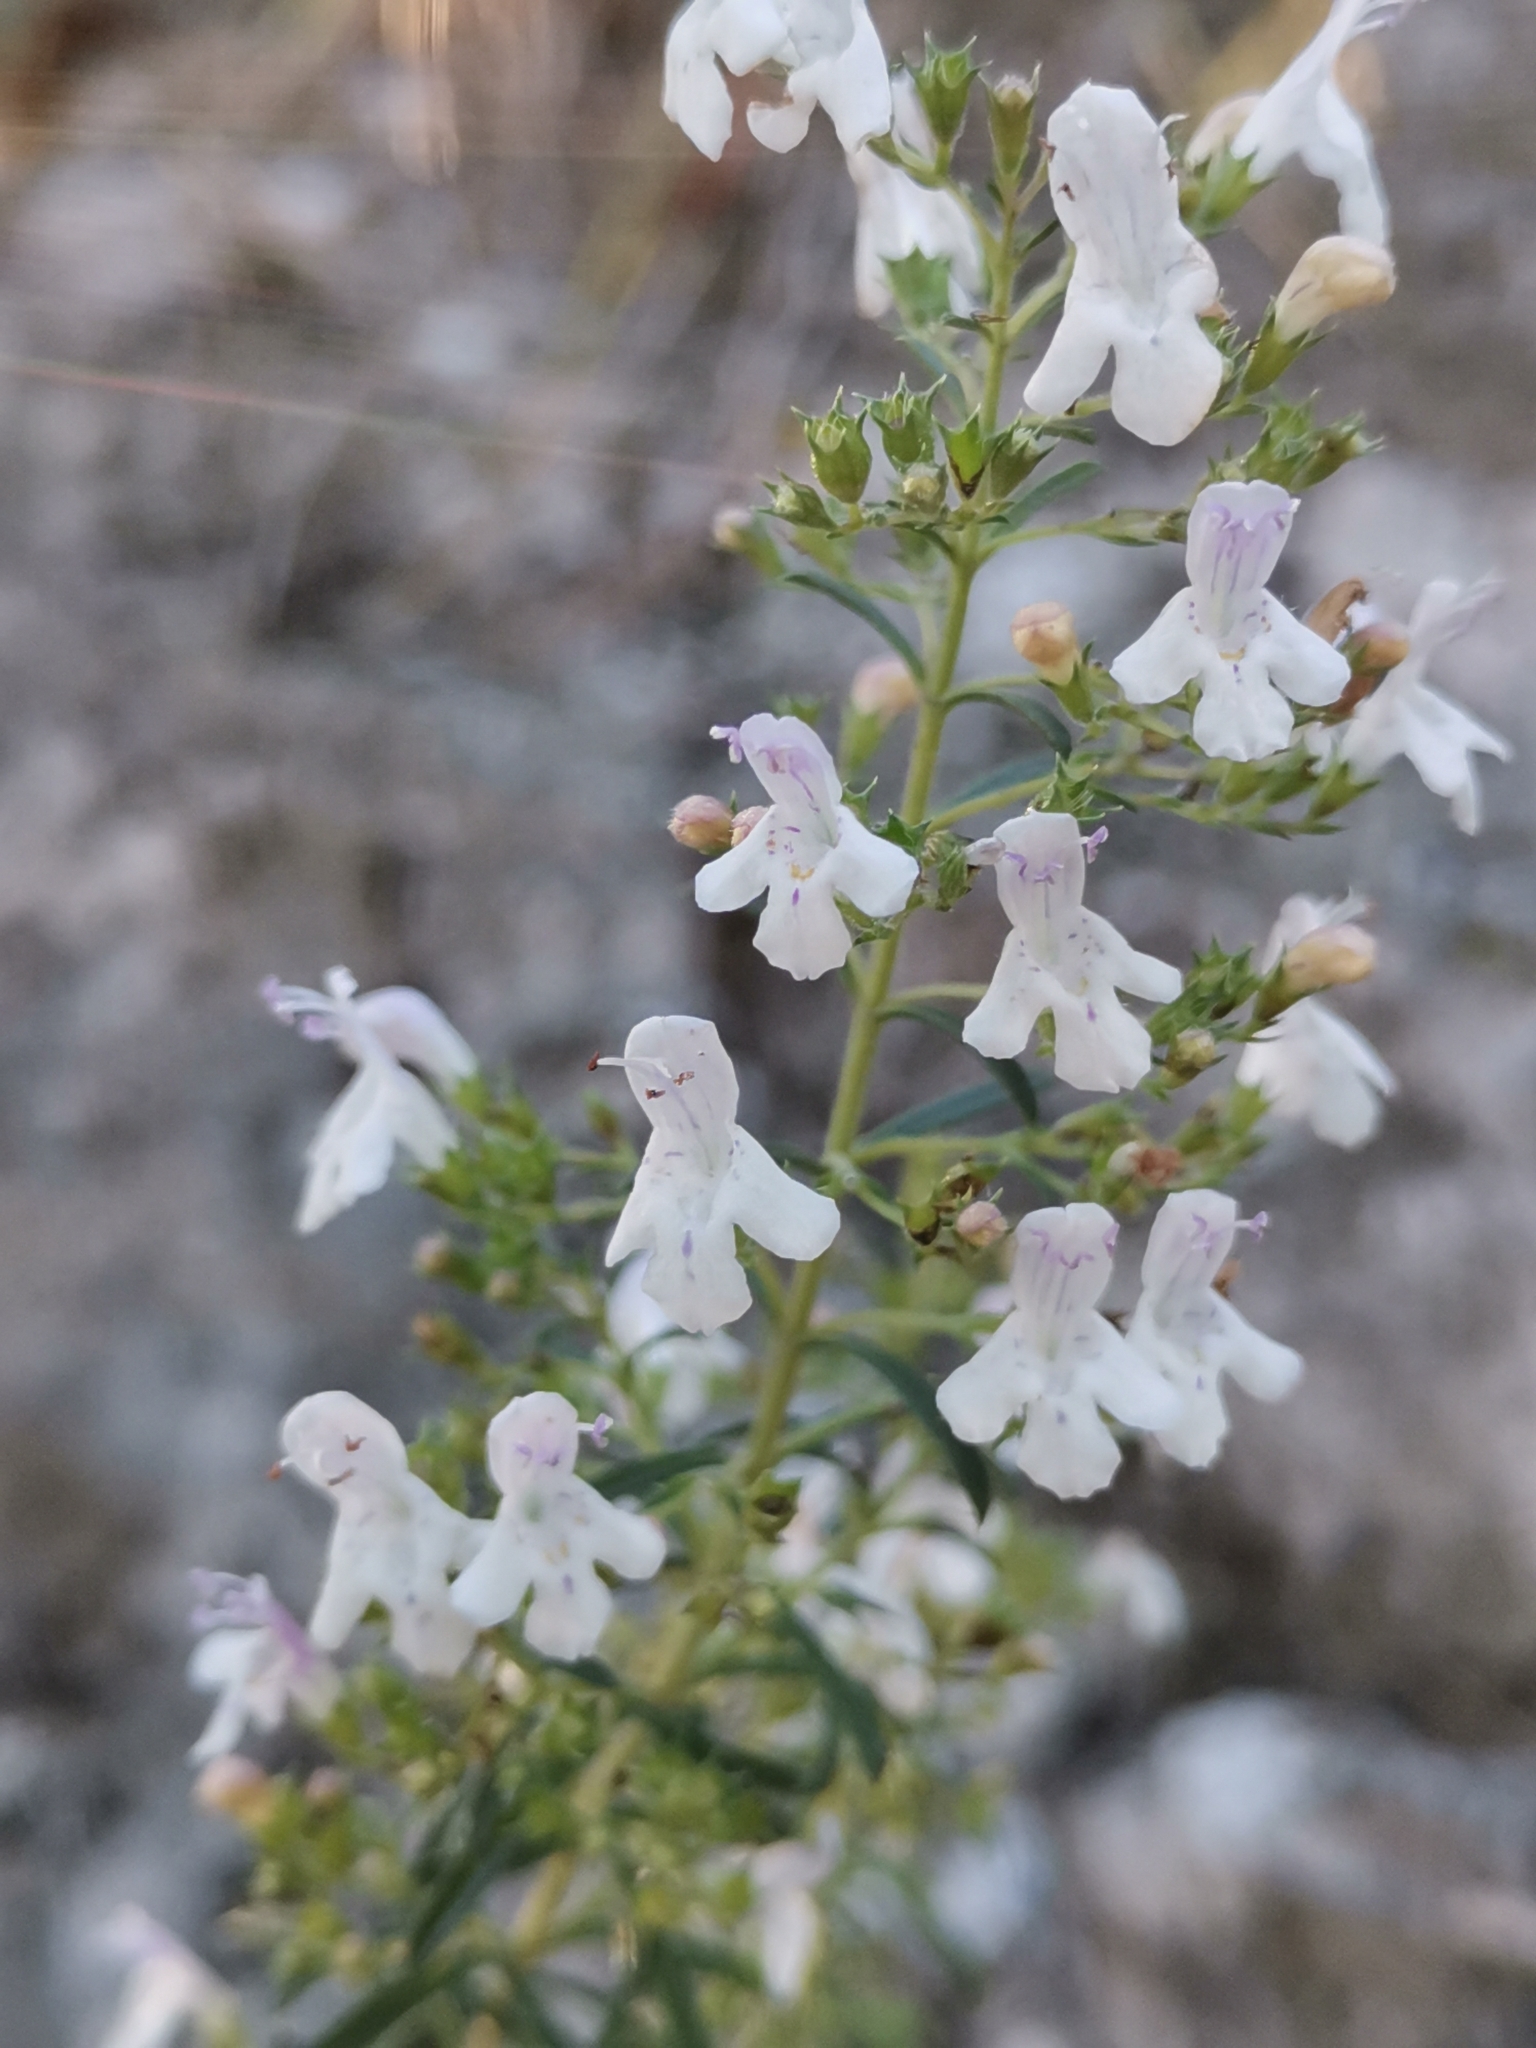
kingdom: Plantae
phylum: Tracheophyta
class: Magnoliopsida
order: Lamiales
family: Lamiaceae
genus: Satureja
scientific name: Satureja montana
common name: Winter savory
